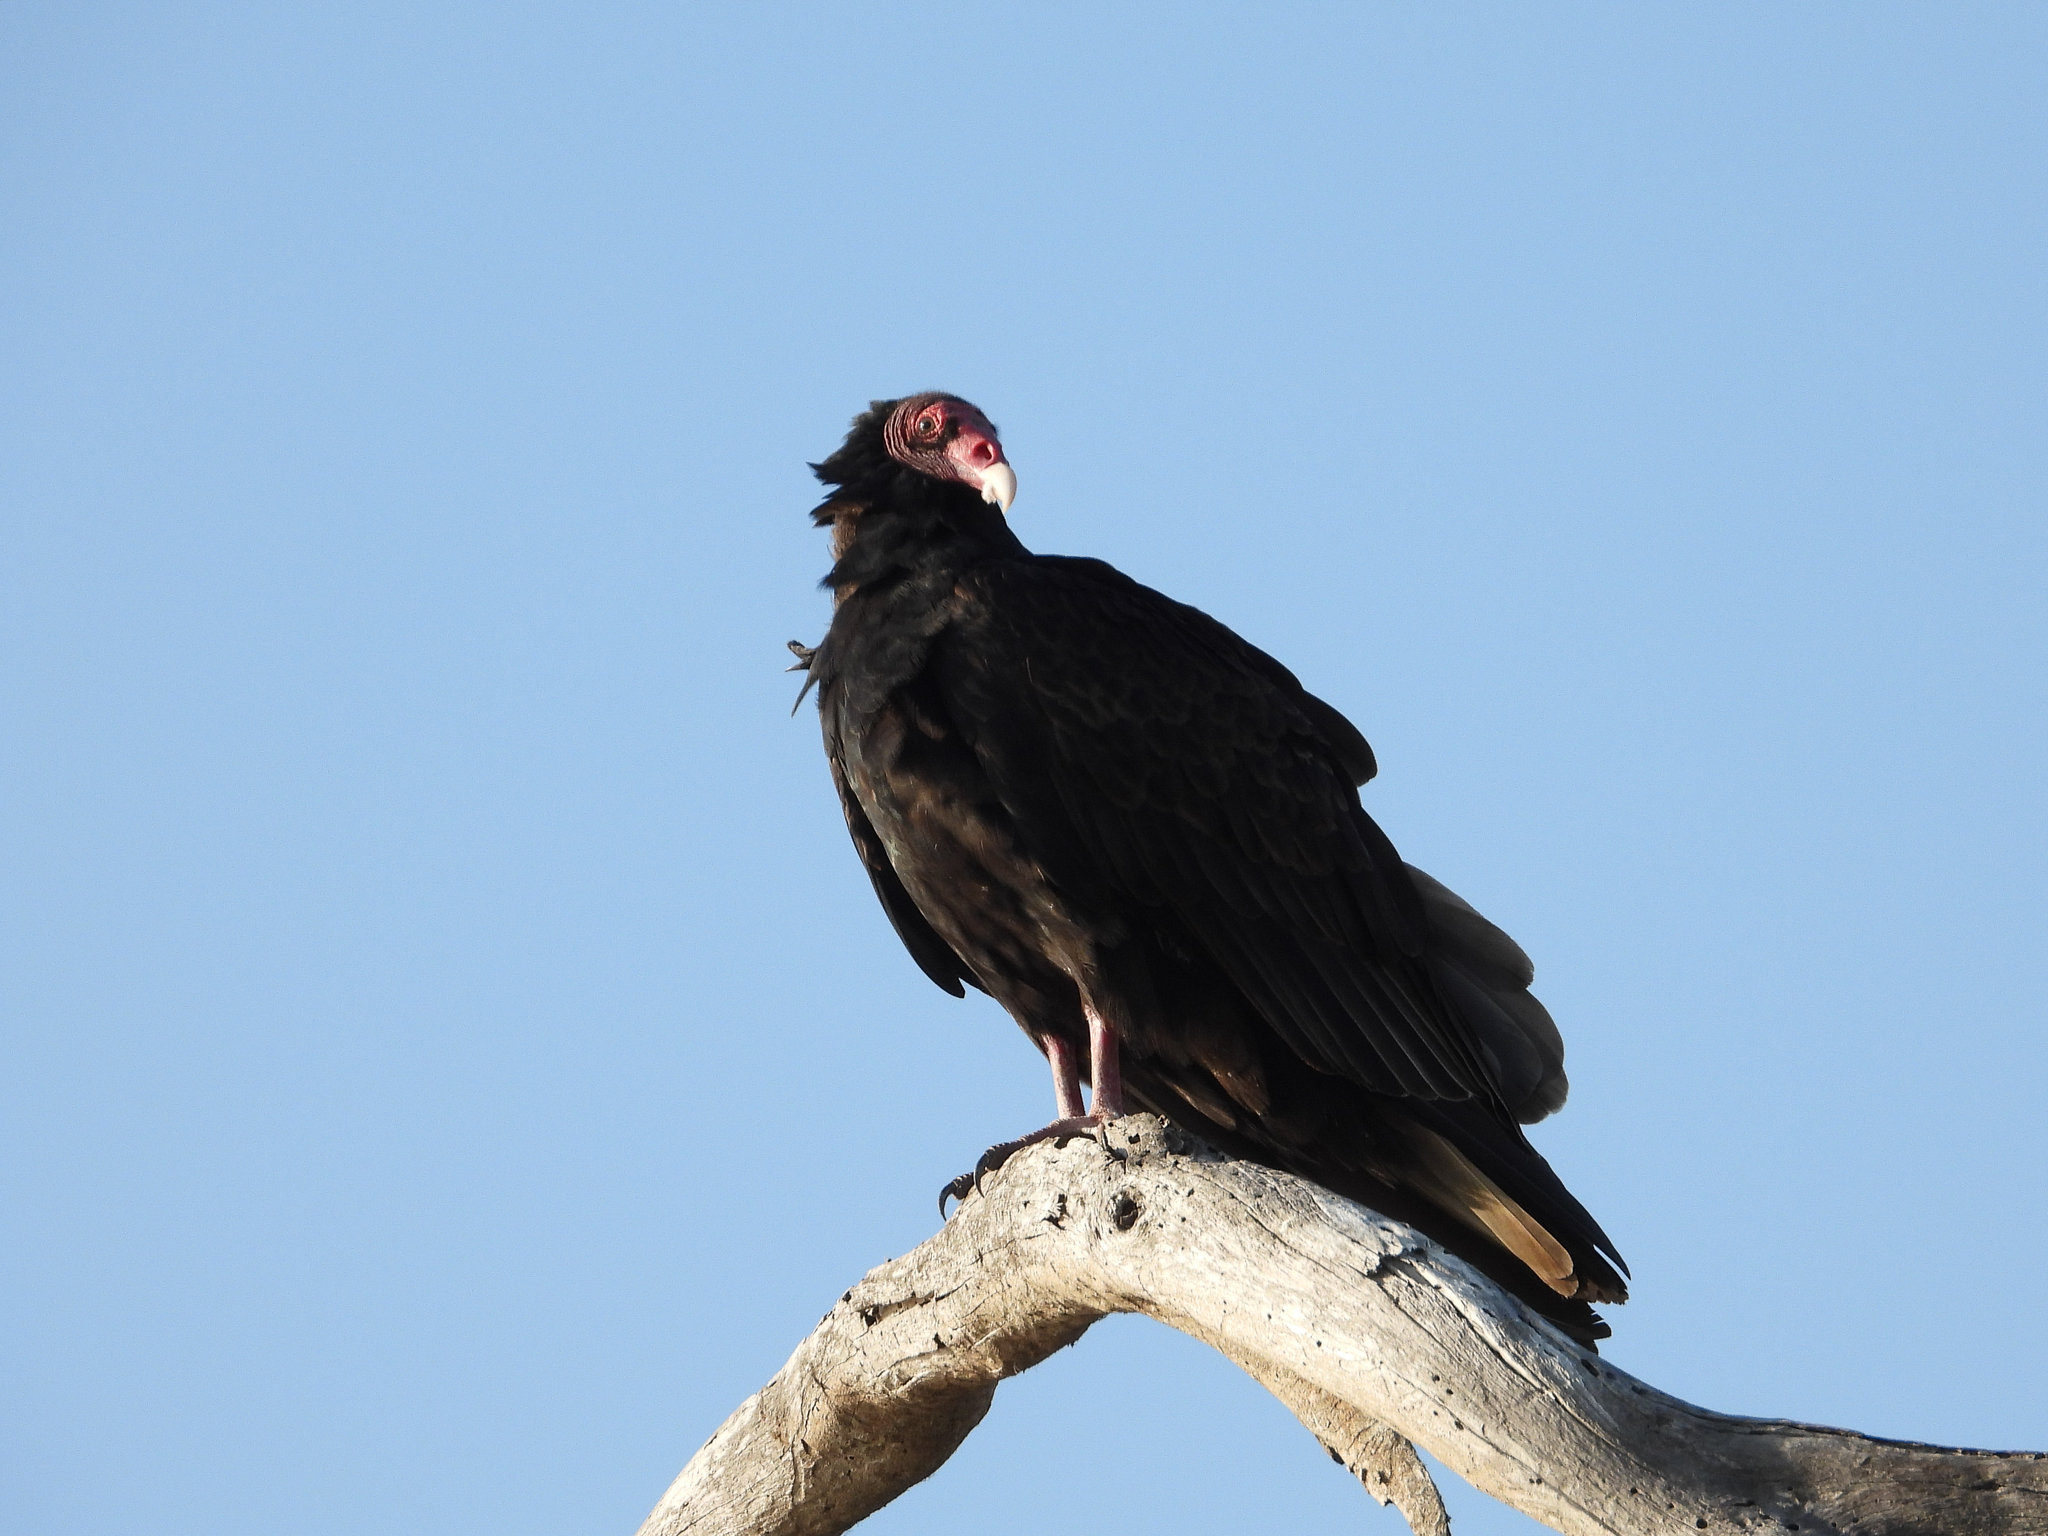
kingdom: Animalia
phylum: Chordata
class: Aves
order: Accipitriformes
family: Cathartidae
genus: Cathartes
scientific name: Cathartes aura
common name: Turkey vulture
